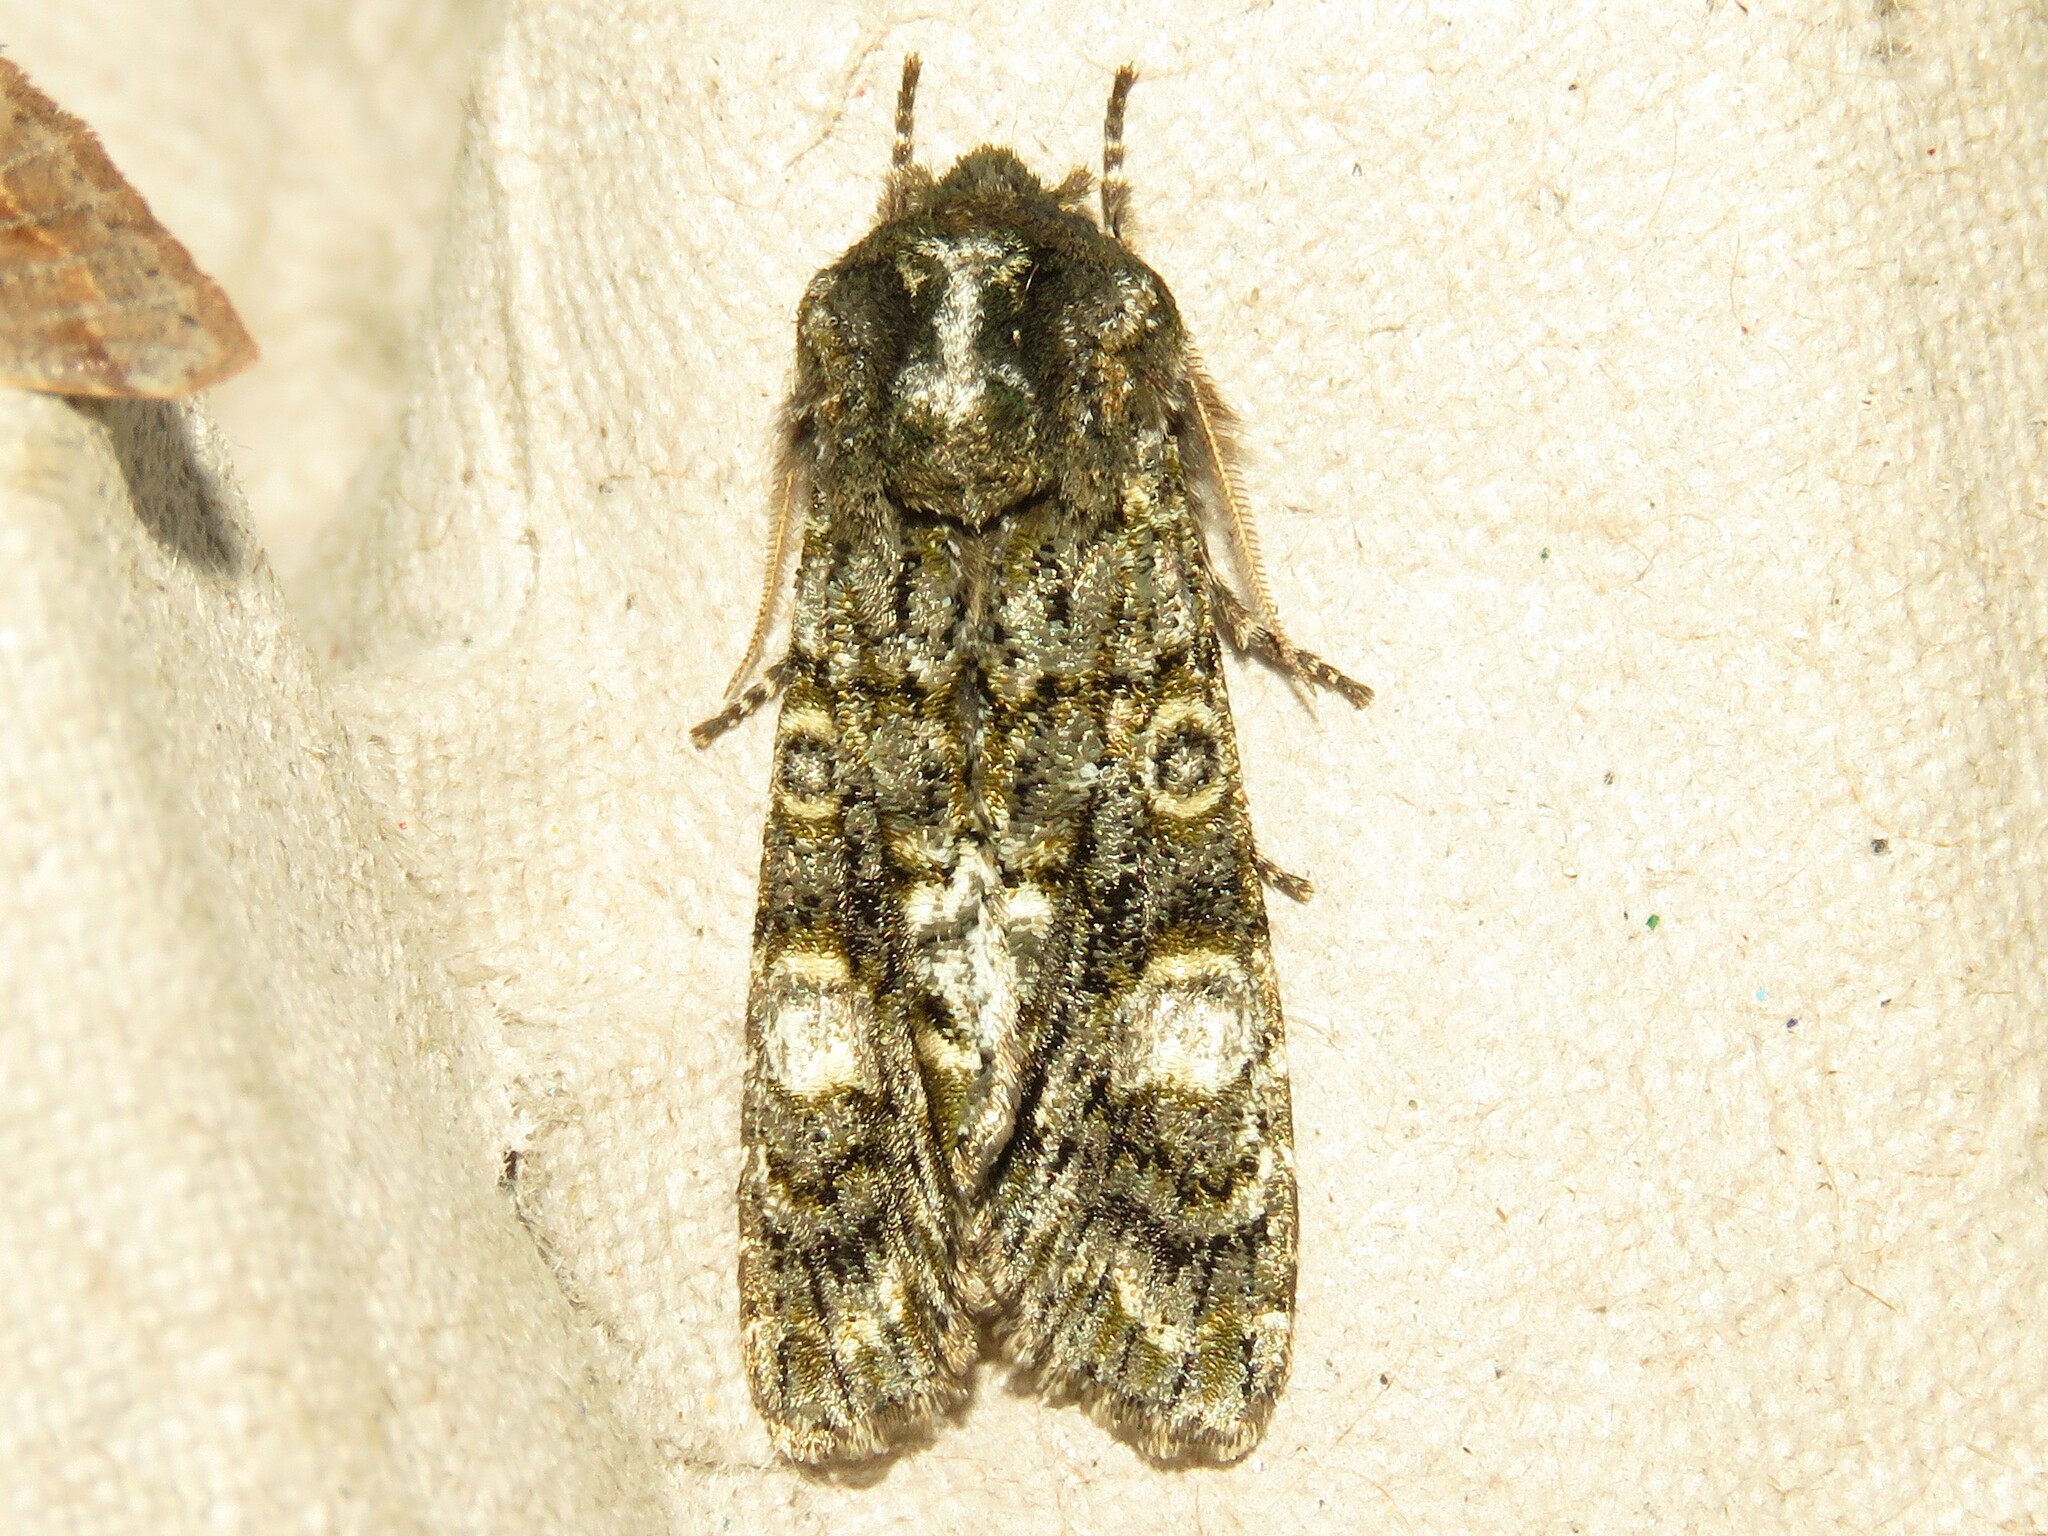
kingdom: Animalia
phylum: Arthropoda
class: Insecta
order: Lepidoptera
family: Noctuidae
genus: Psaphida
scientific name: Psaphida grotei
